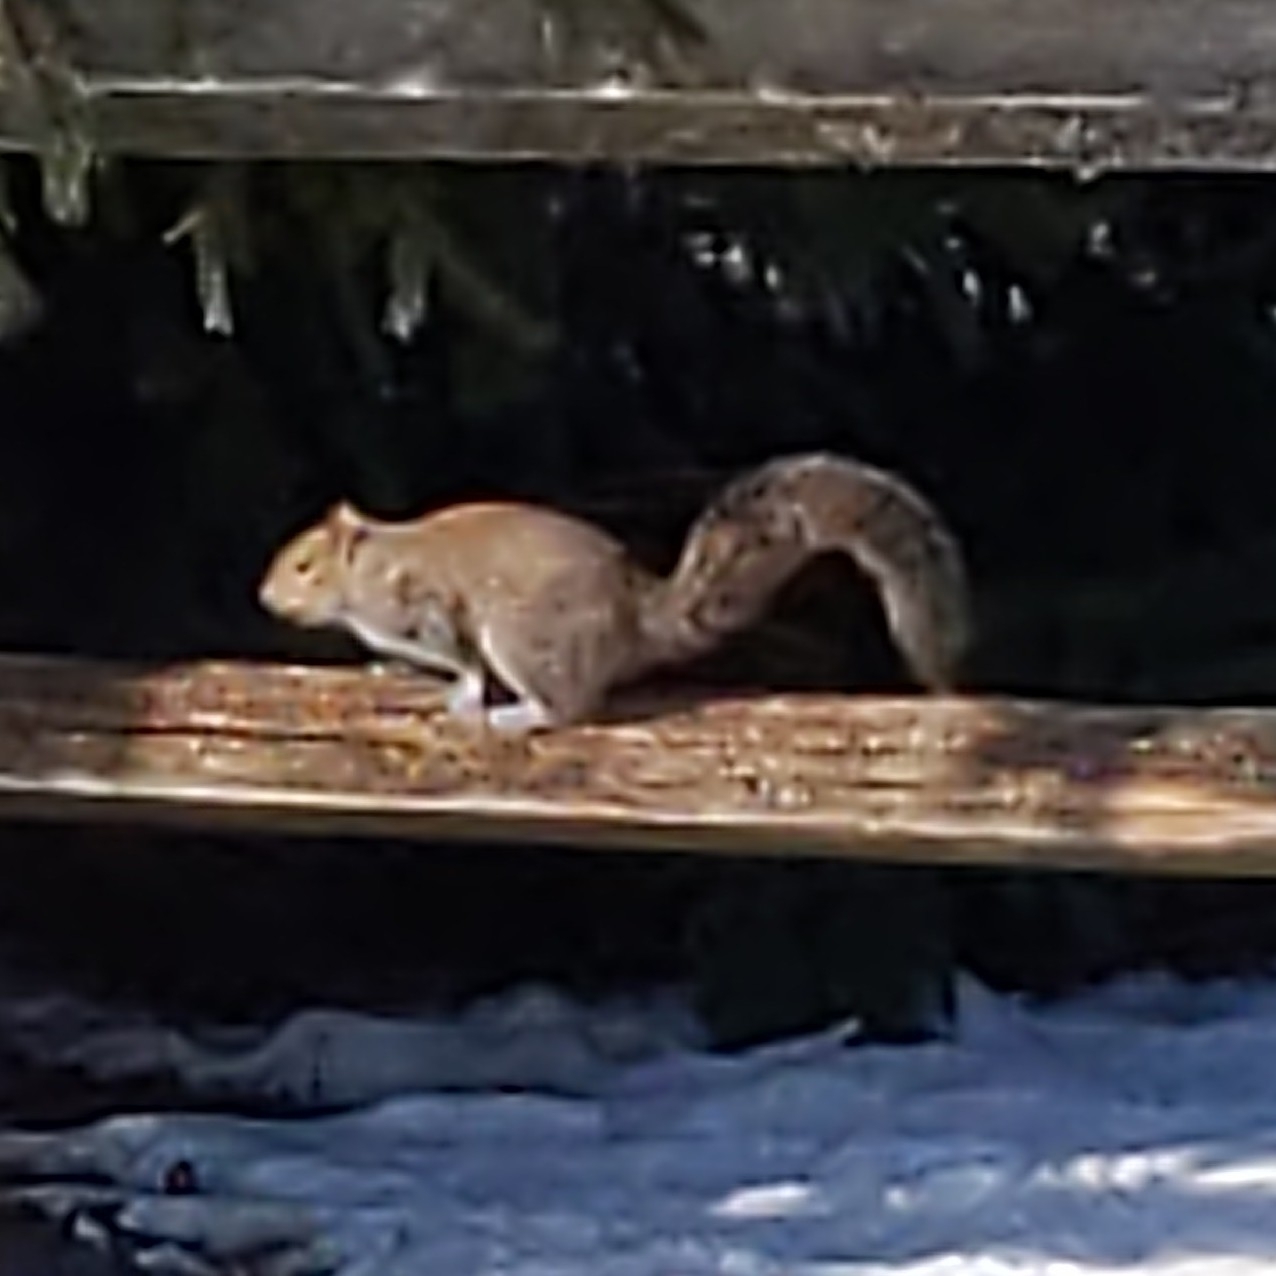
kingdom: Animalia
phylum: Chordata
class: Mammalia
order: Rodentia
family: Sciuridae
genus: Sciurus
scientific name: Sciurus carolinensis
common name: Eastern gray squirrel
